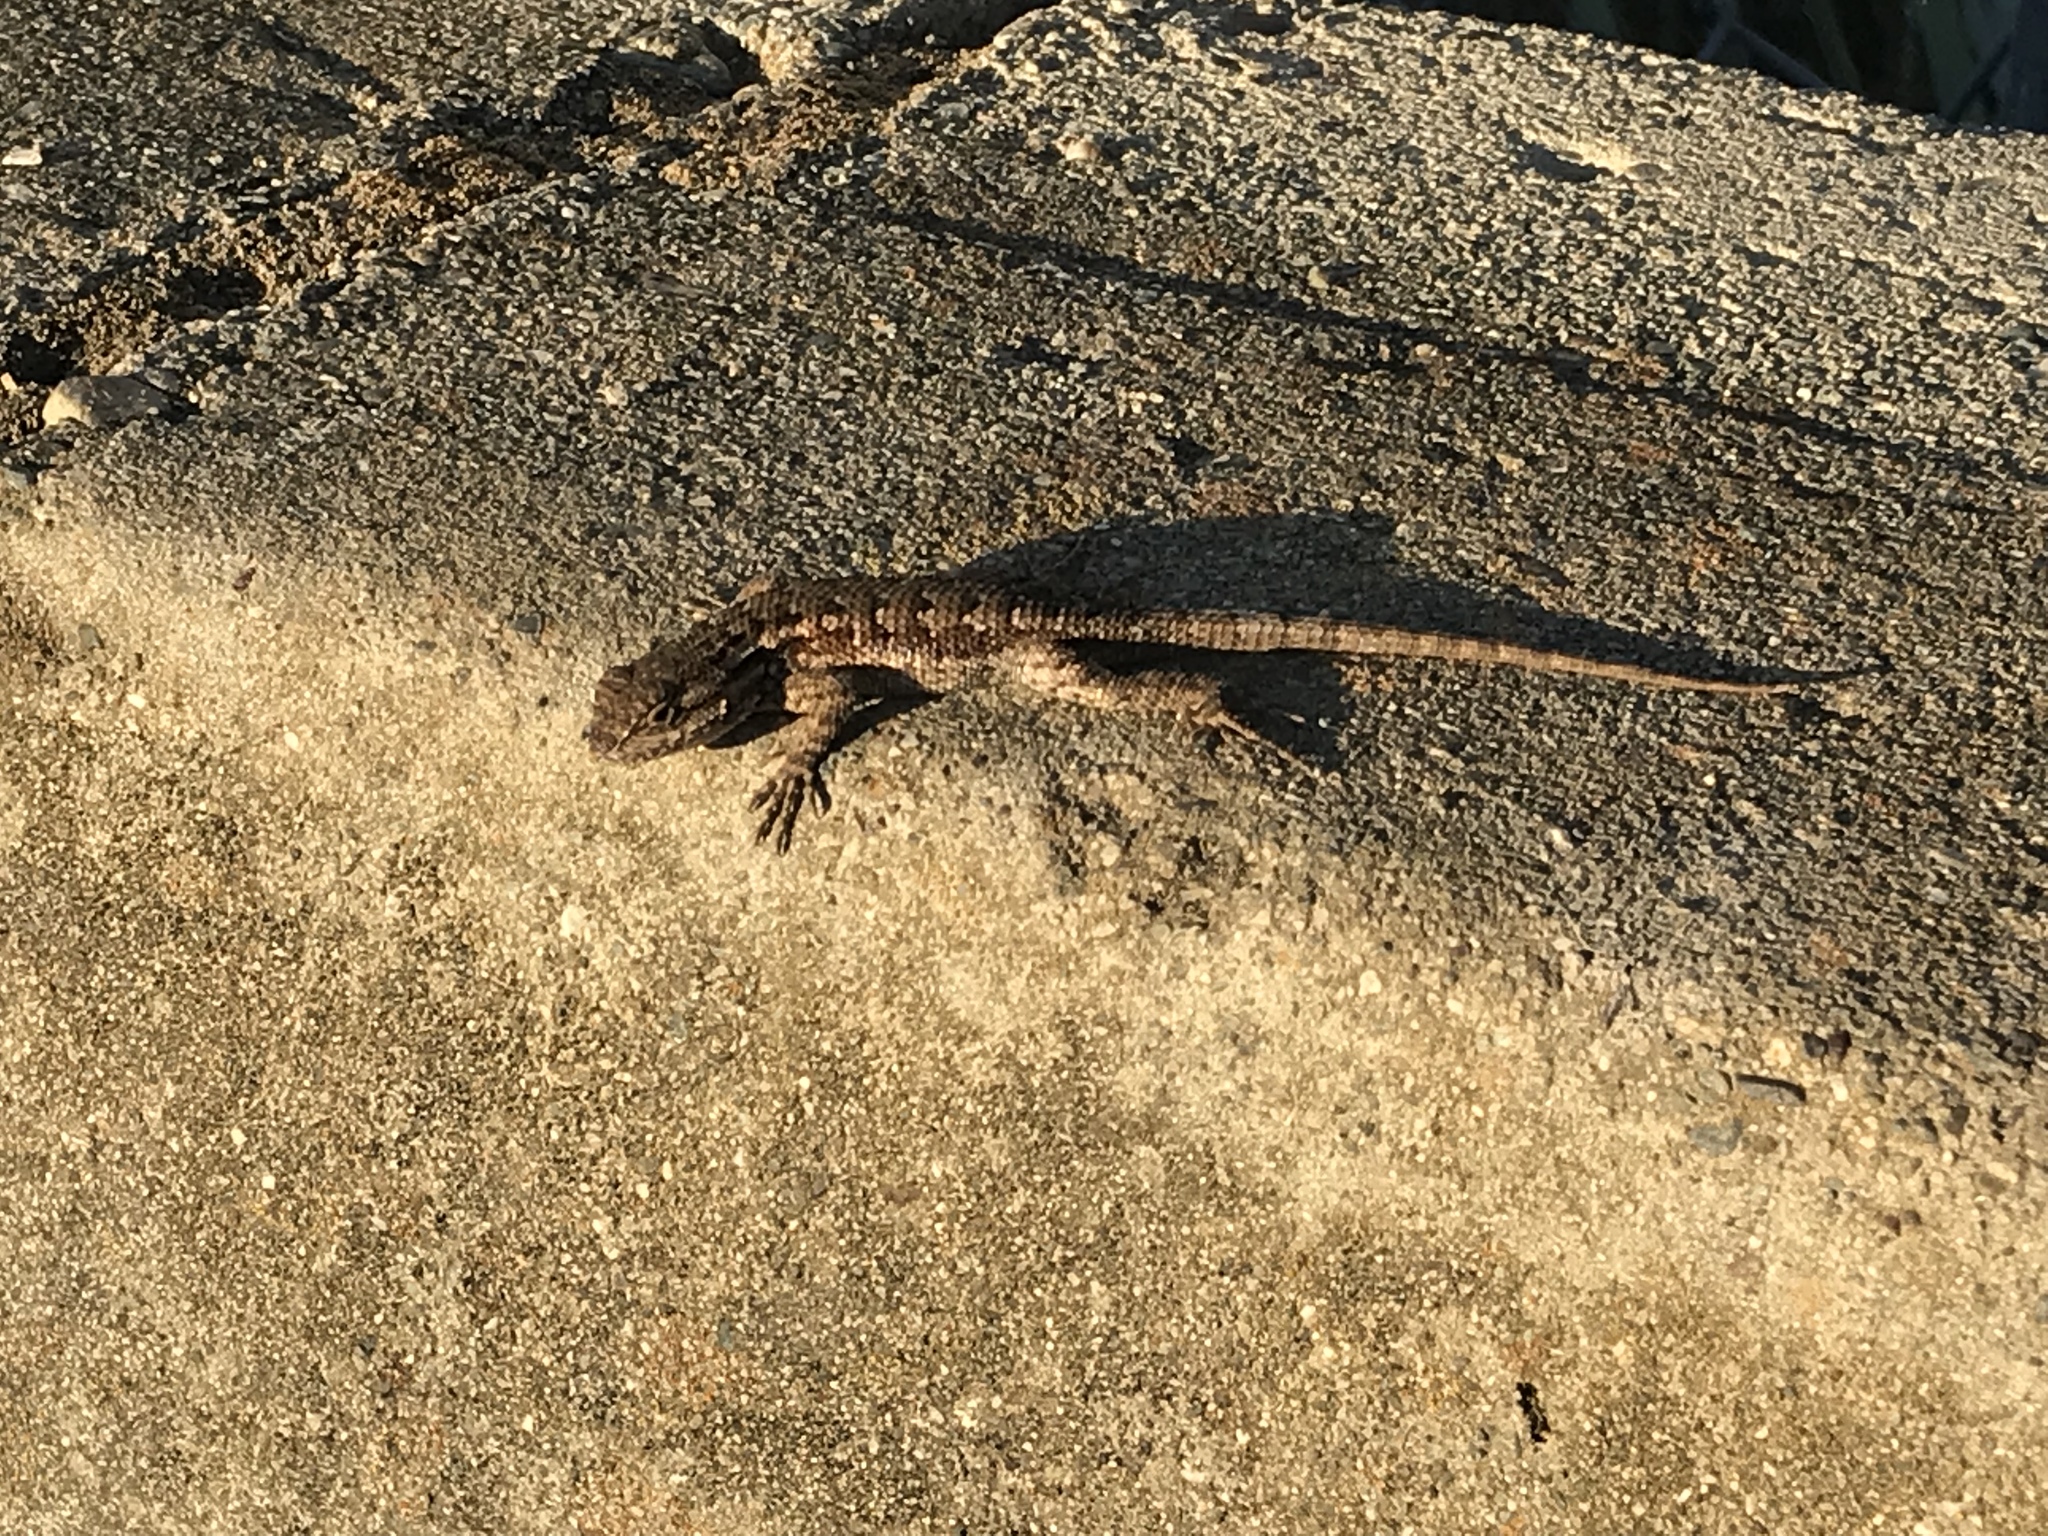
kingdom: Animalia
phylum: Chordata
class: Squamata
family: Phrynosomatidae
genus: Sceloporus
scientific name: Sceloporus occidentalis
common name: Western fence lizard
